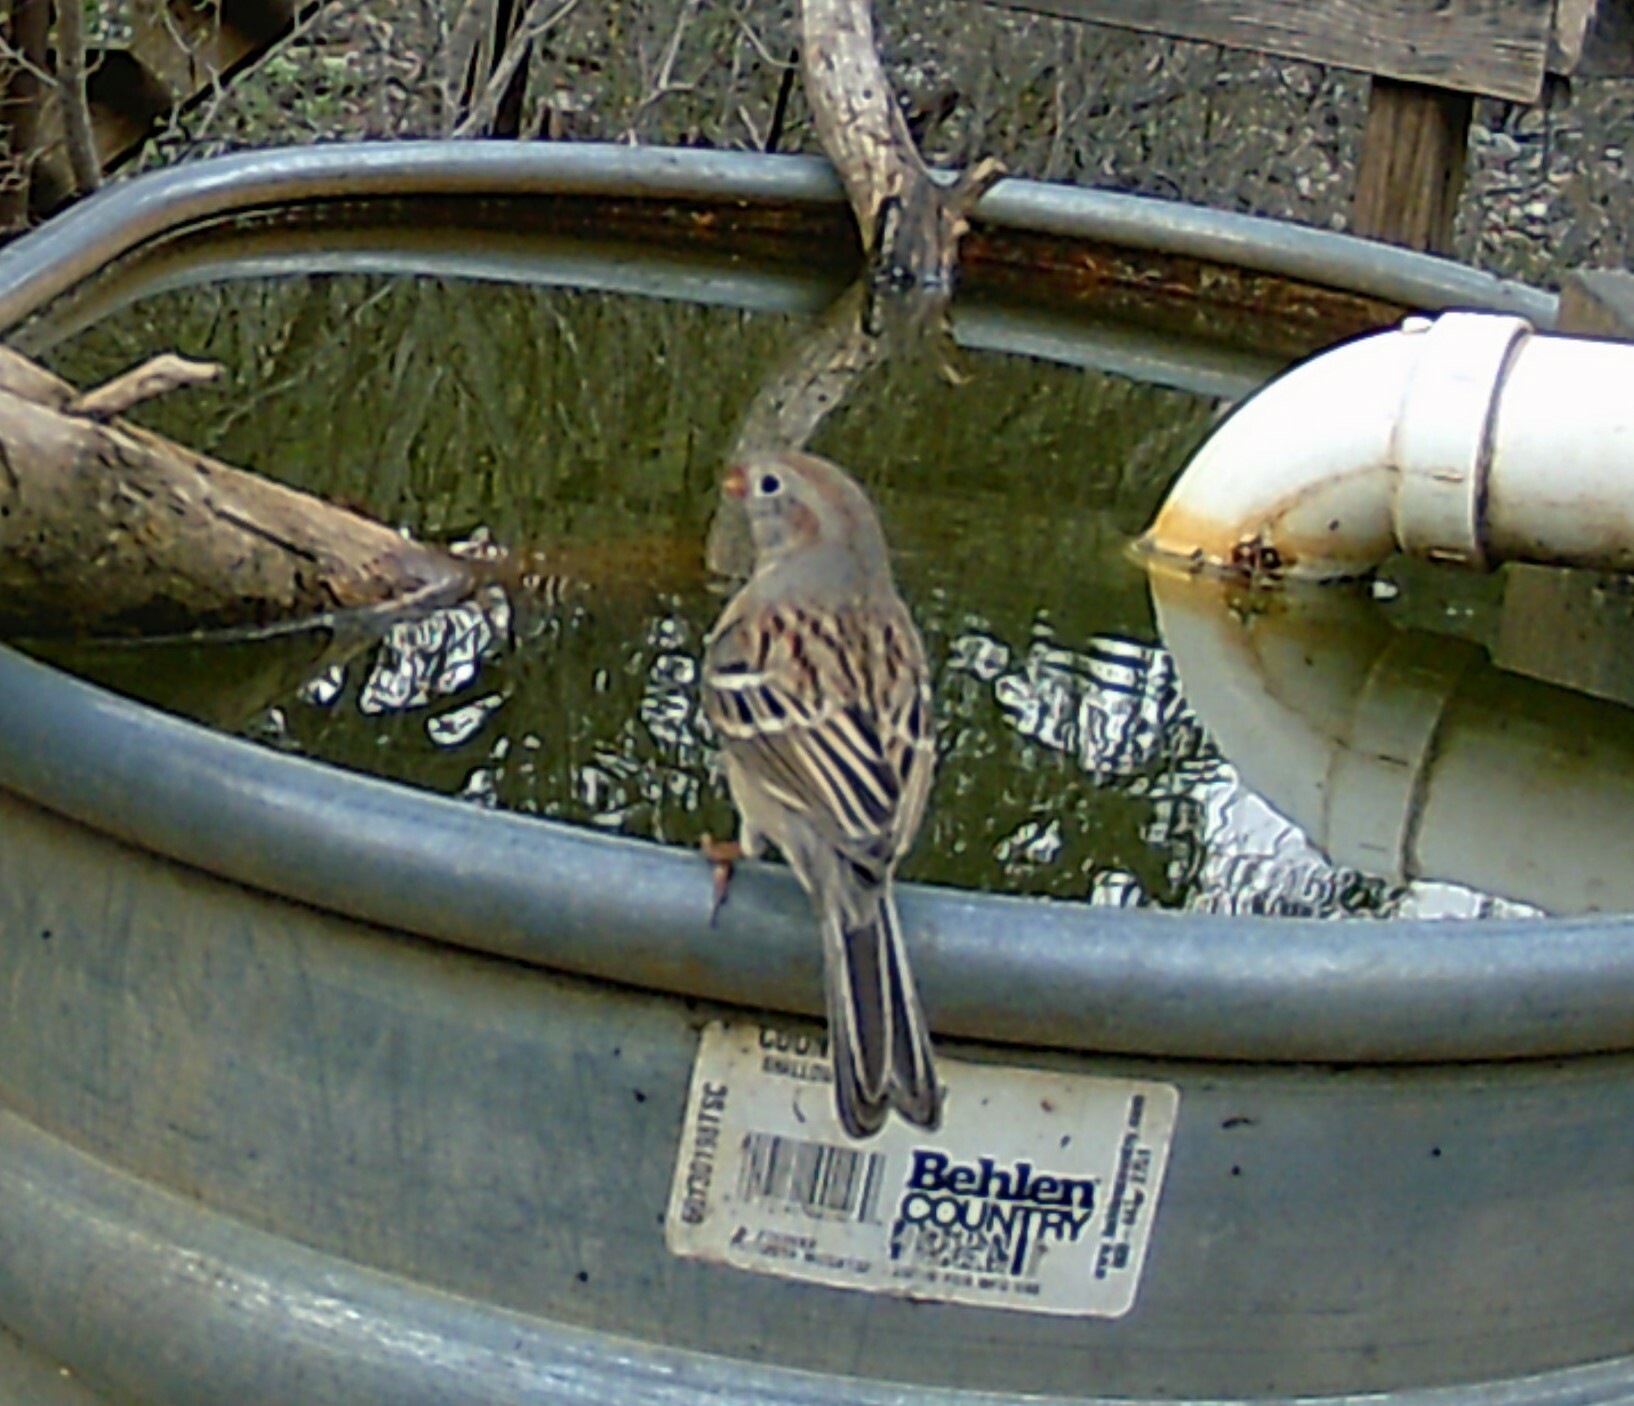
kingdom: Animalia
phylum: Chordata
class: Aves
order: Passeriformes
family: Passerellidae
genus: Spizella
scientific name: Spizella pusilla
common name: Field sparrow
